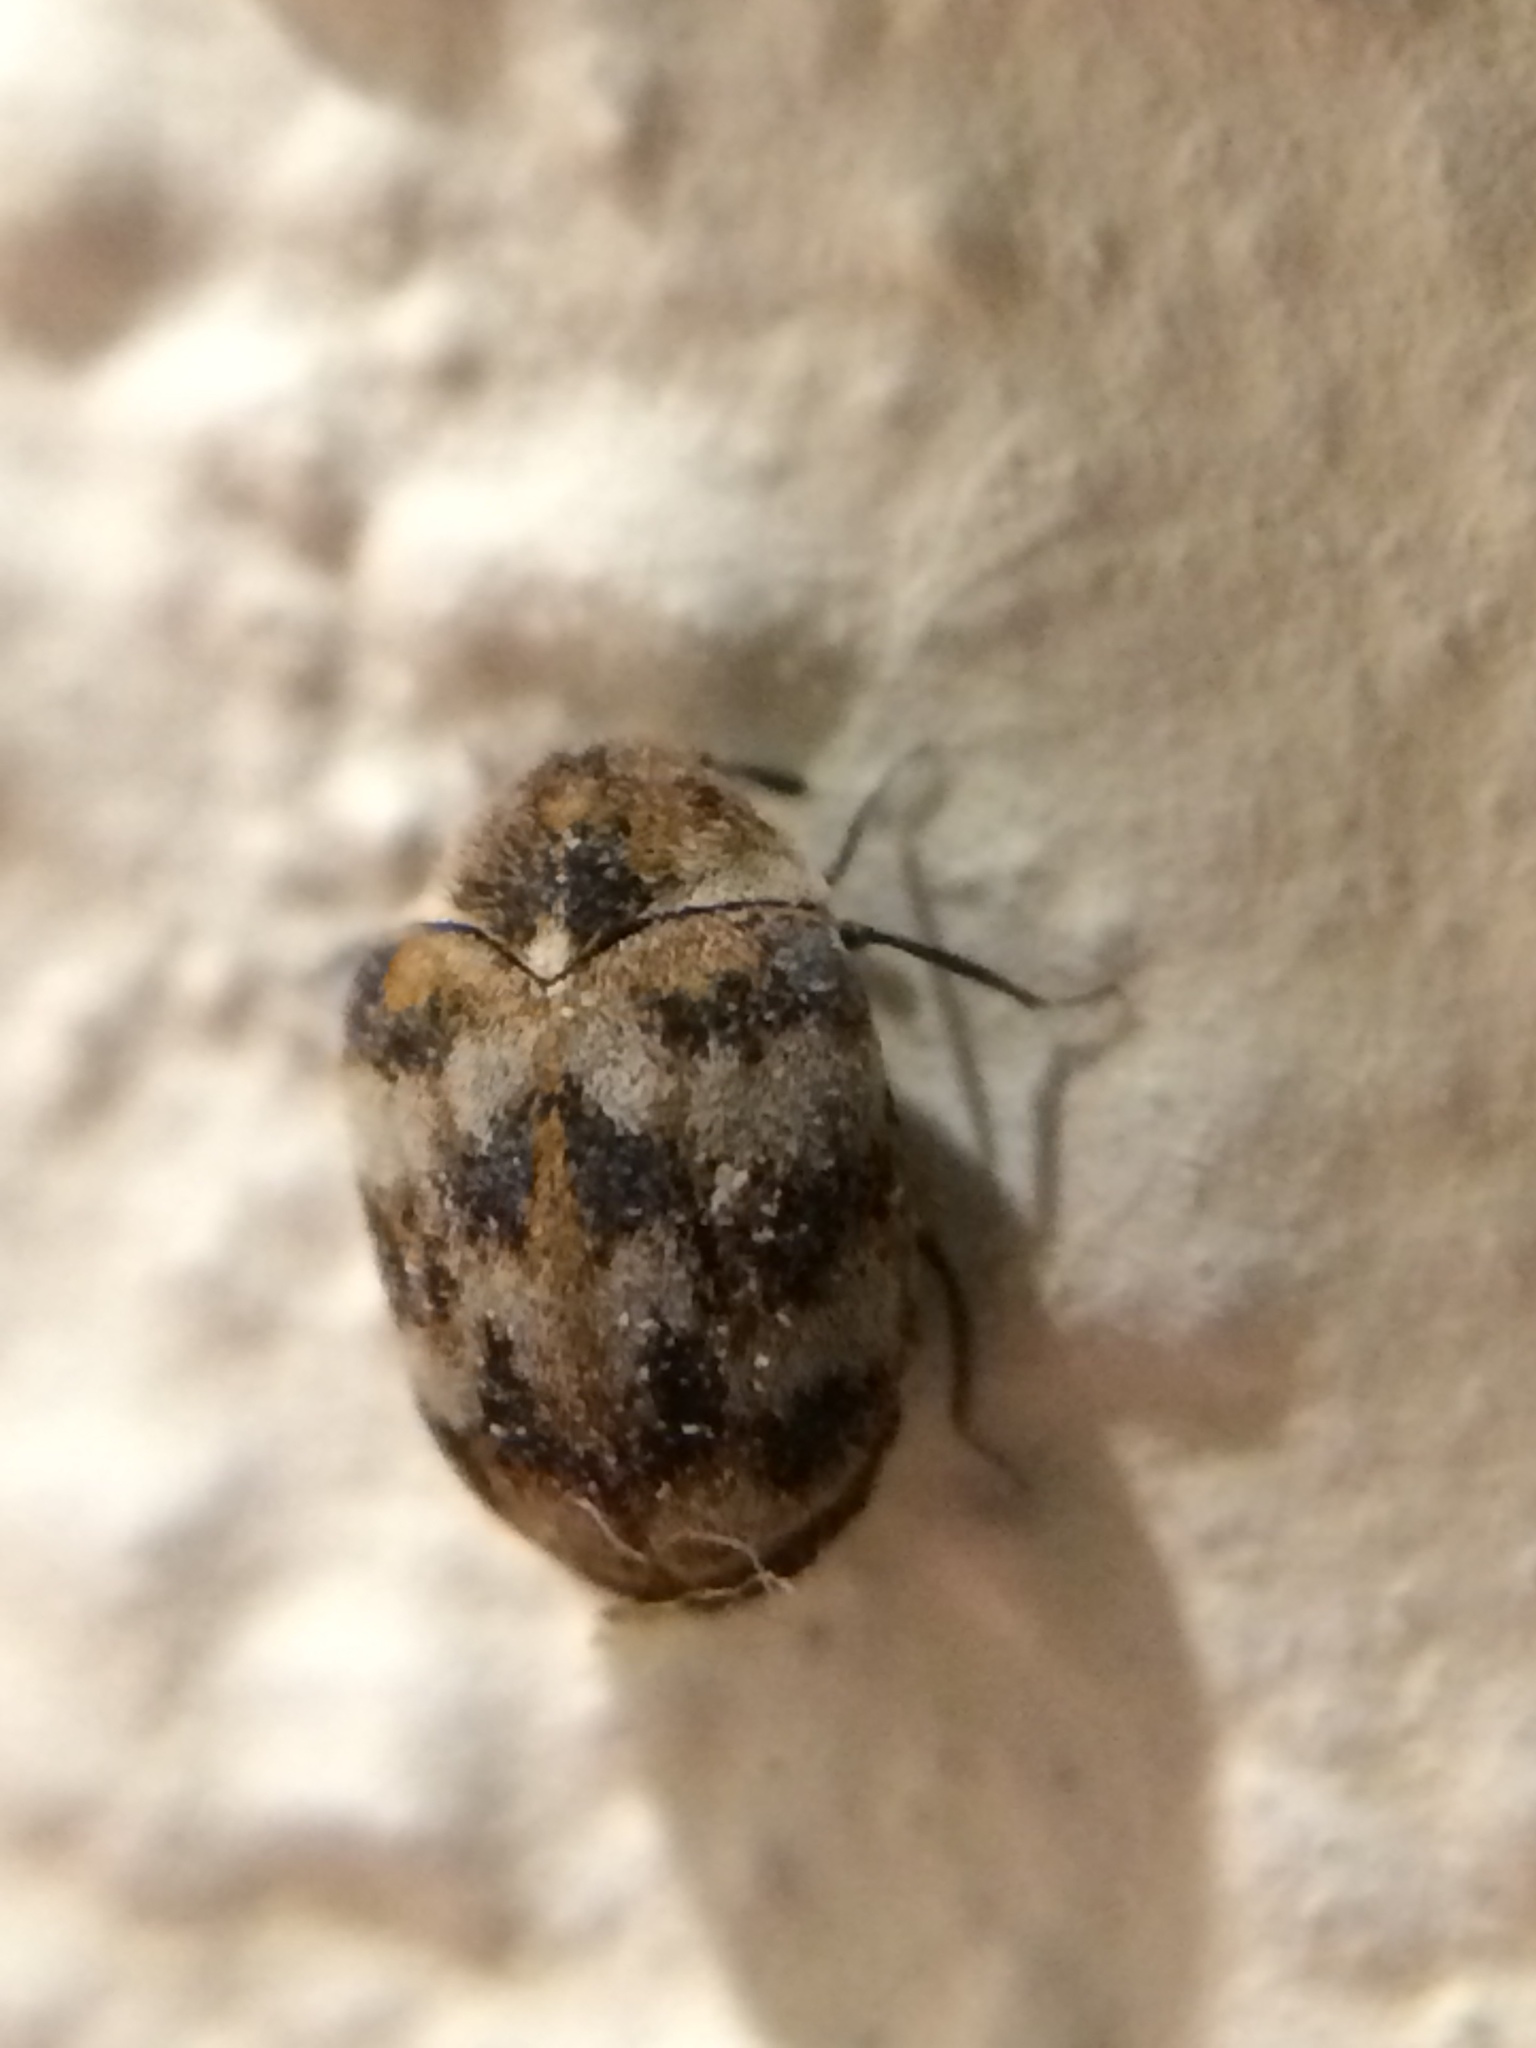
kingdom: Animalia
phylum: Arthropoda
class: Insecta
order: Coleoptera
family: Dermestidae
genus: Anthrenus
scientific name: Anthrenus verbasci
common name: Varied carpet beetle
